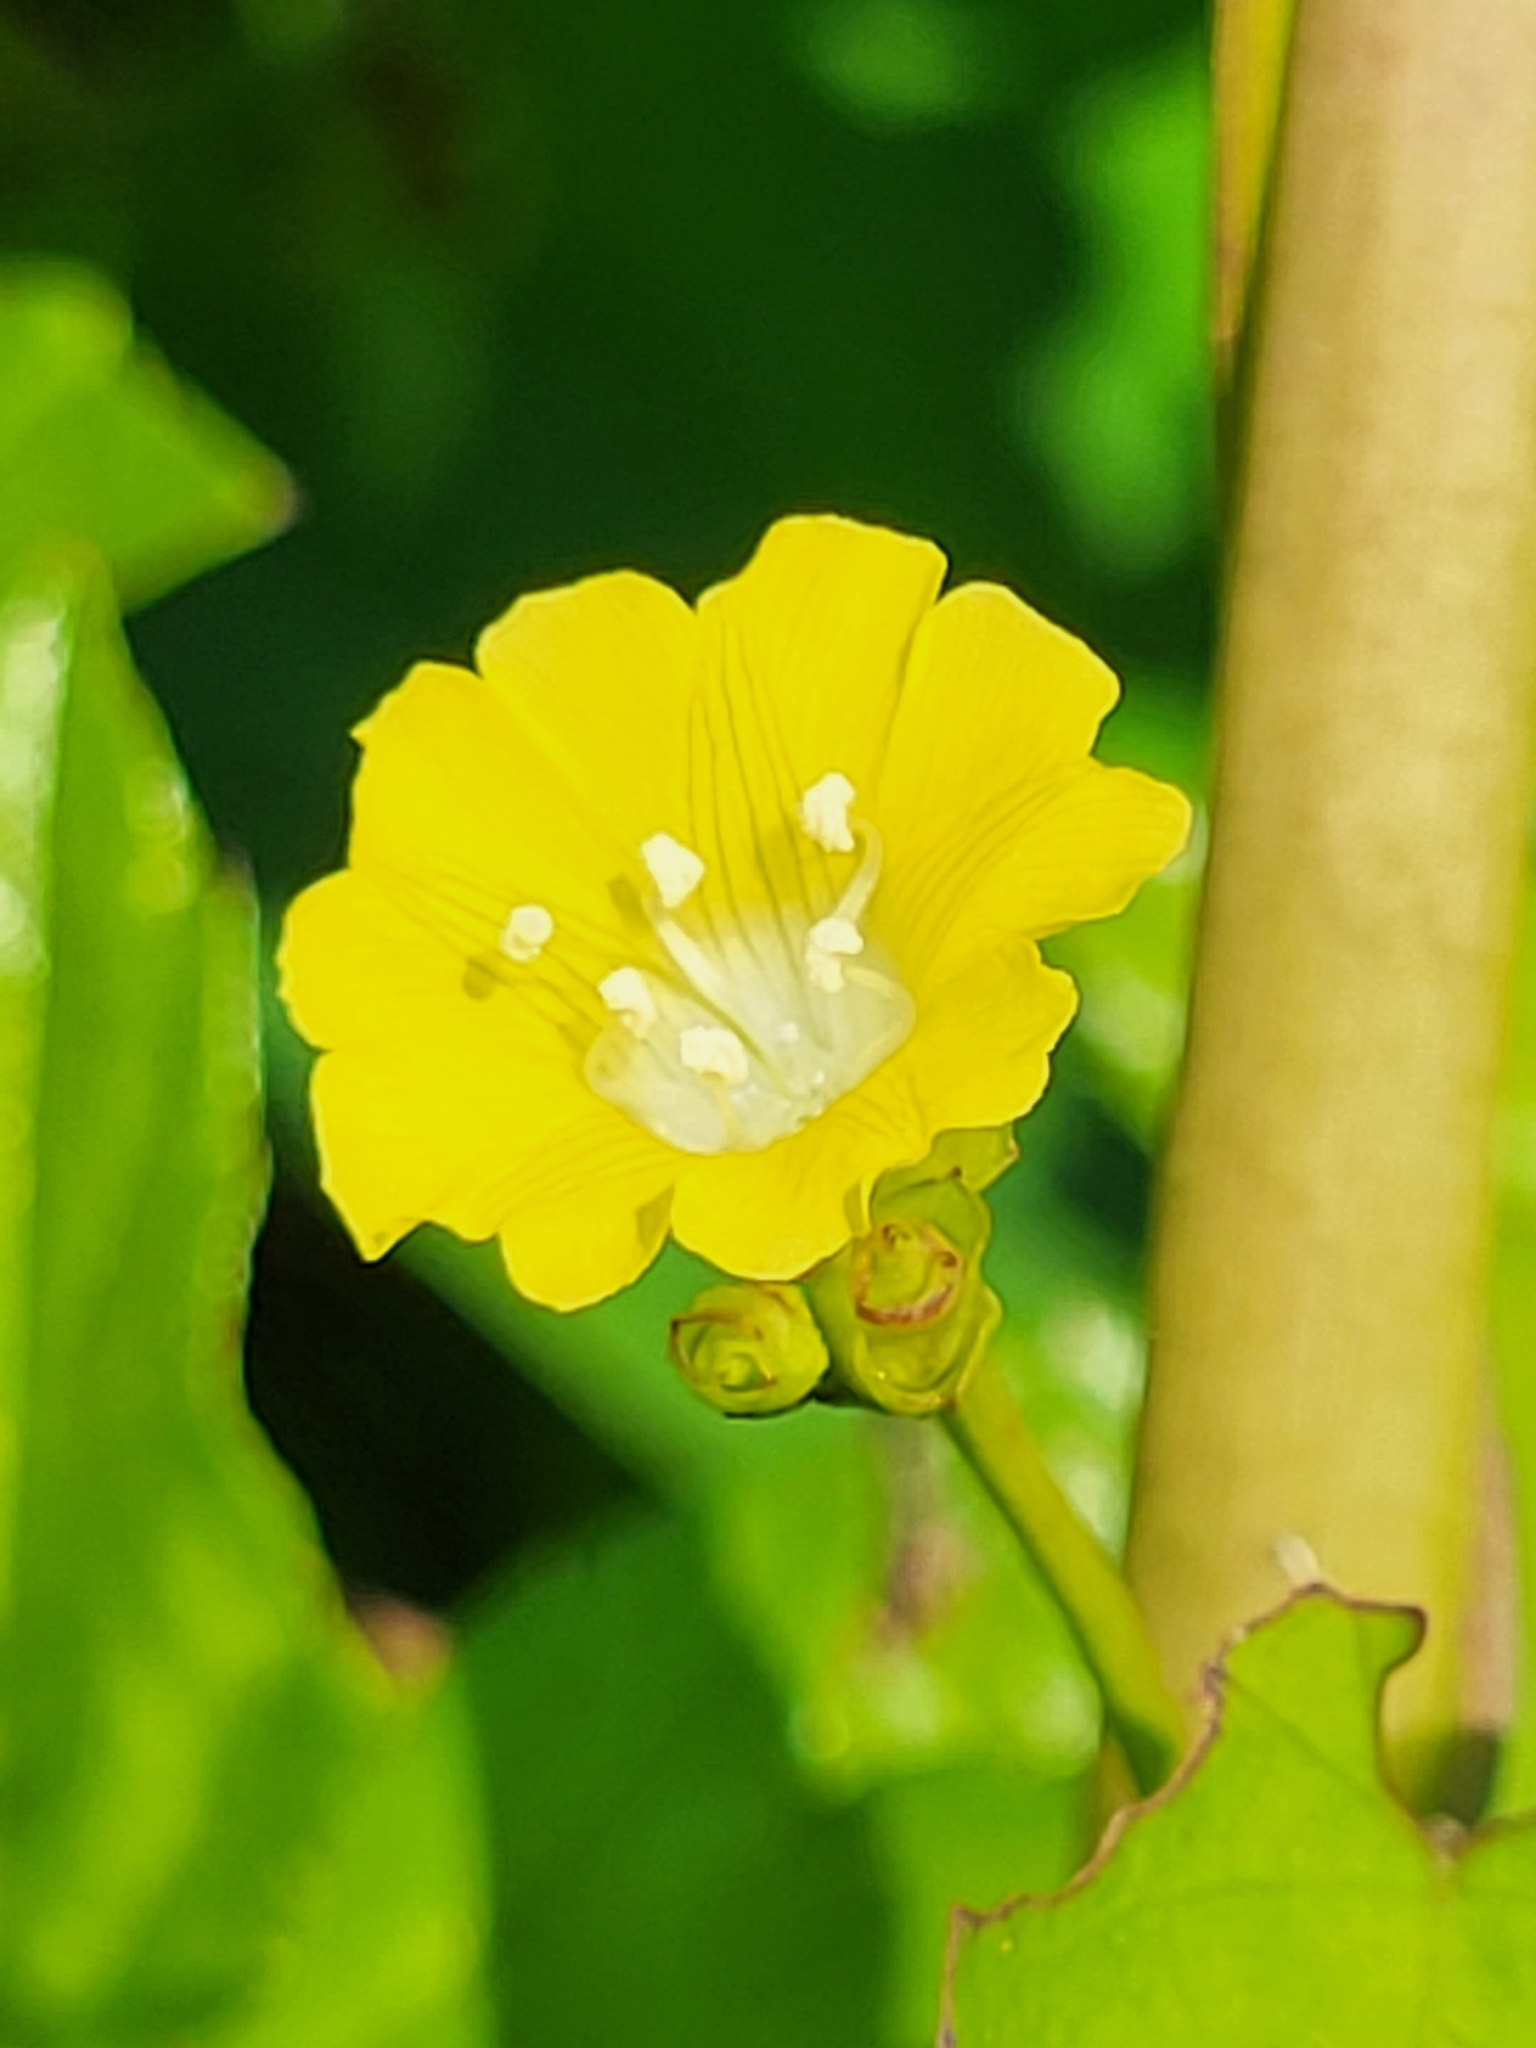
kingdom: Plantae
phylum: Tracheophyta
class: Magnoliopsida
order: Solanales
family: Convolvulaceae
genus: Merremia
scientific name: Merremia hederacea
